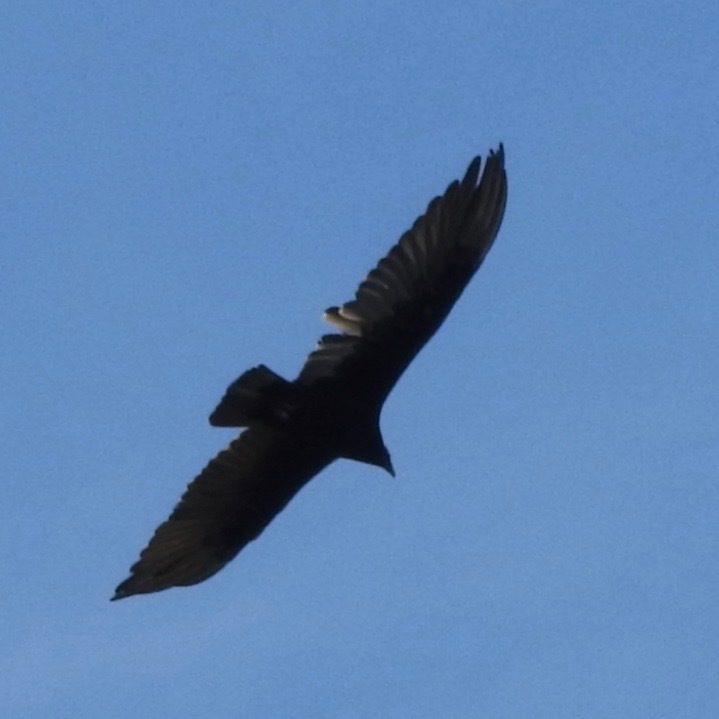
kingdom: Animalia
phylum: Chordata
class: Aves
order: Accipitriformes
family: Cathartidae
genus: Cathartes
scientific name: Cathartes aura
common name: Turkey vulture
